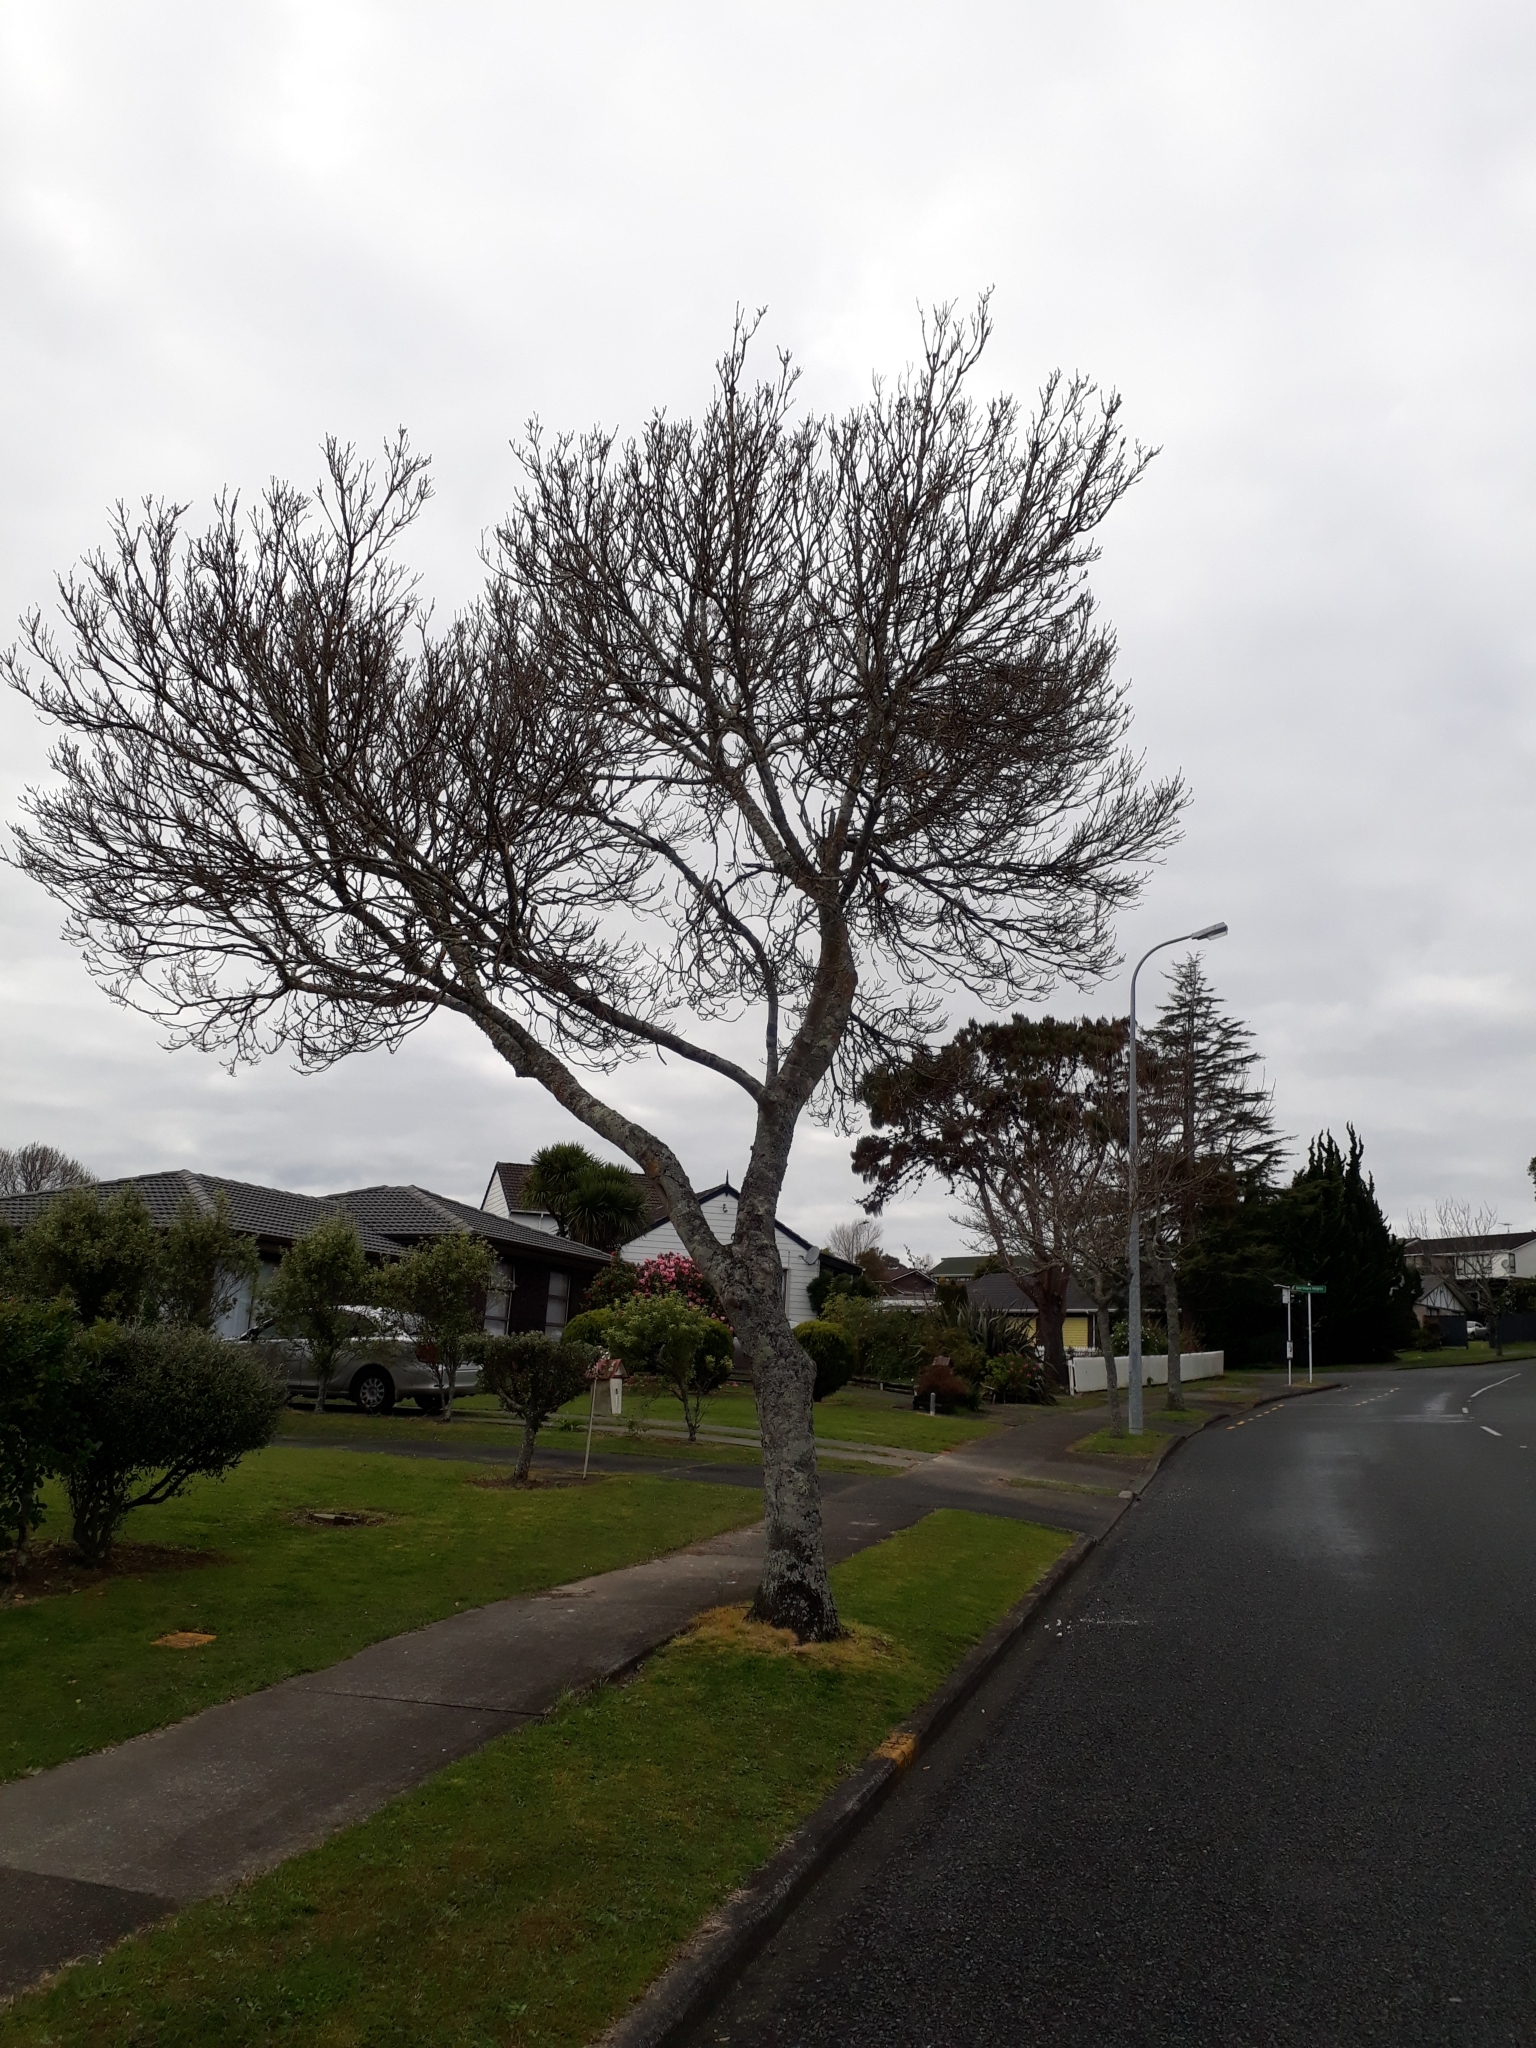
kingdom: Animalia
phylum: Chordata
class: Aves
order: Psittaciformes
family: Psittacidae
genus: Platycercus
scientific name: Platycercus eximius
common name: Eastern rosella
